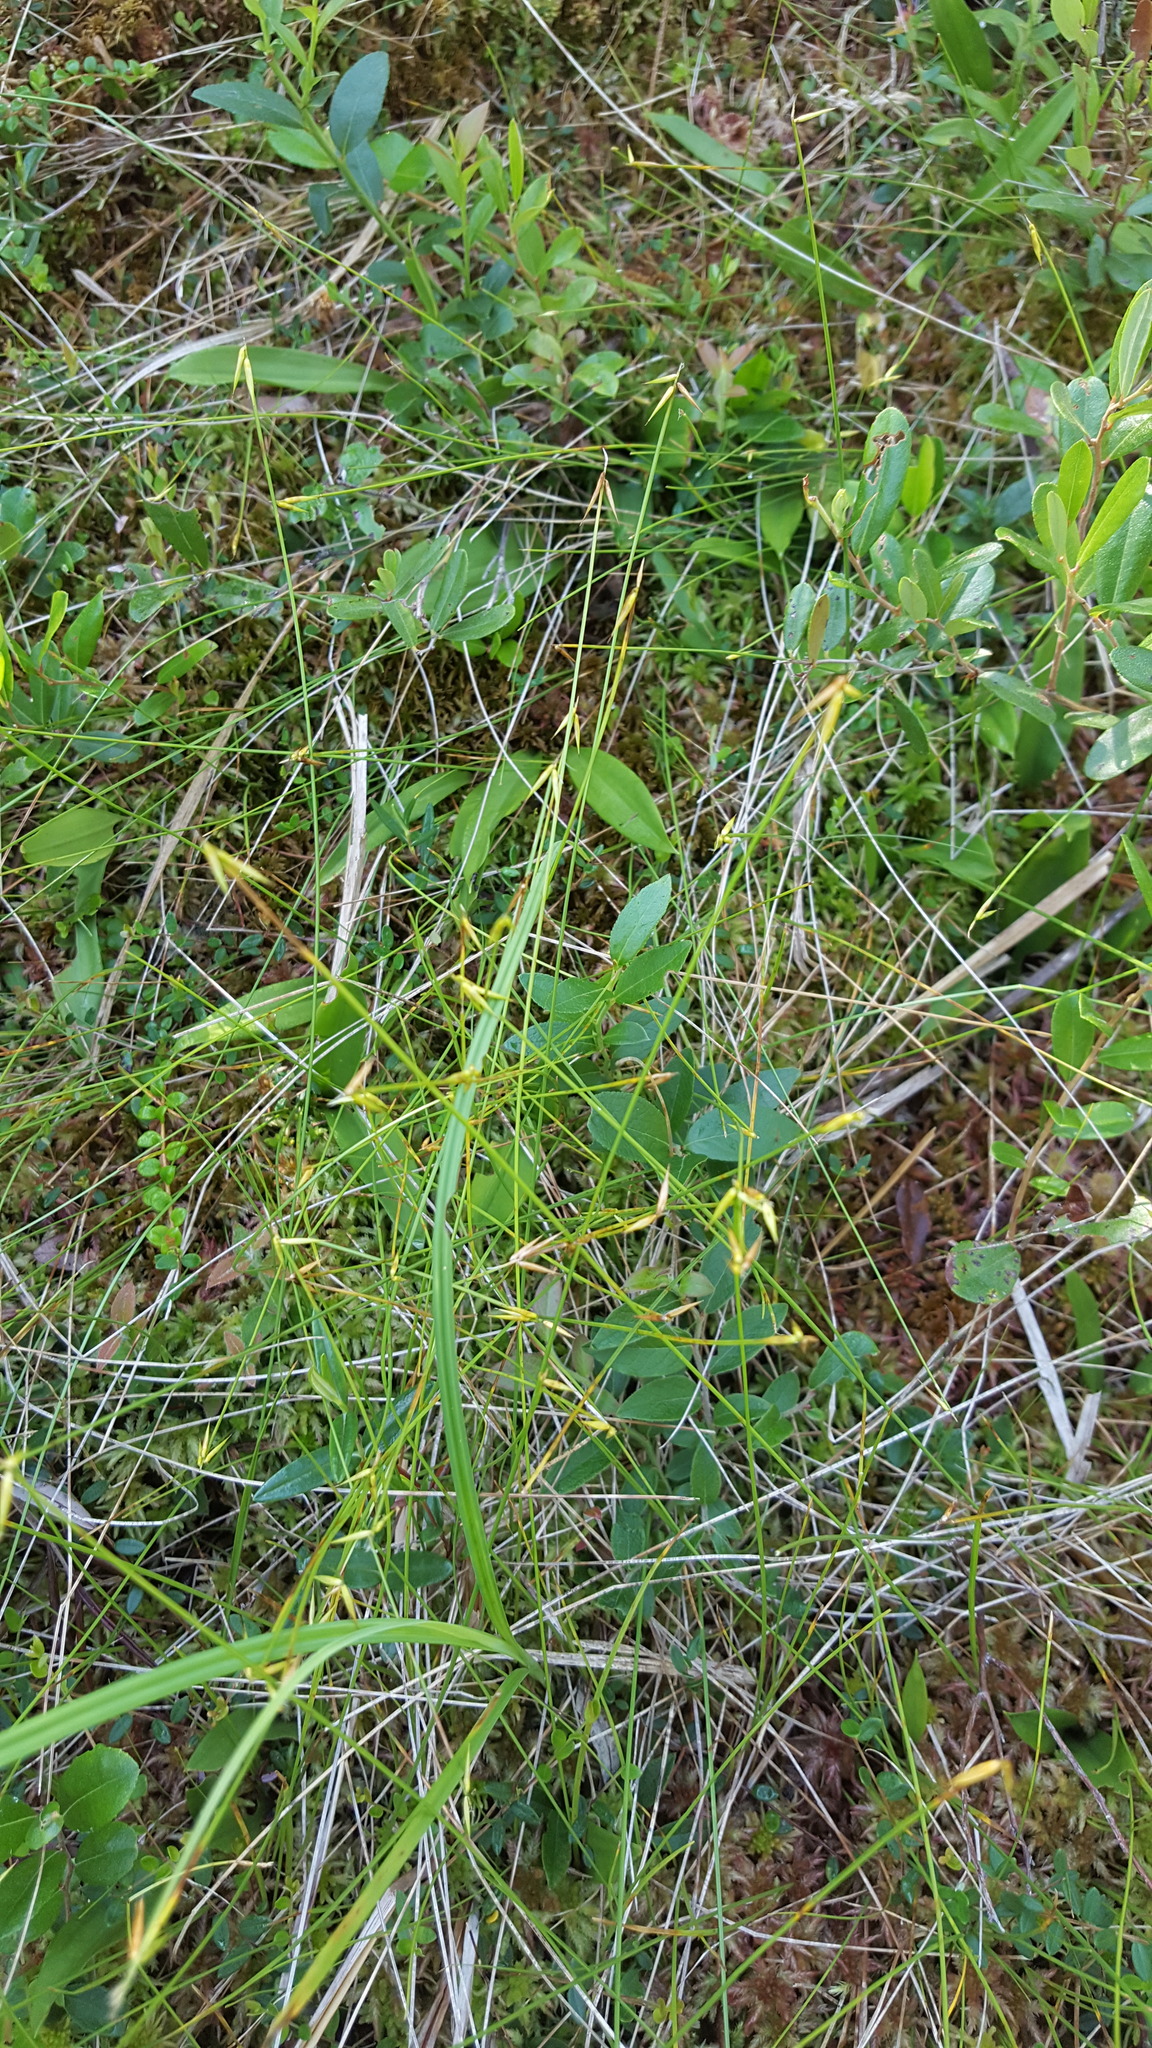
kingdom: Plantae
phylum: Tracheophyta
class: Liliopsida
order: Poales
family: Cyperaceae
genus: Carex
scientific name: Carex pauciflora
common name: Few-flowered sedge
